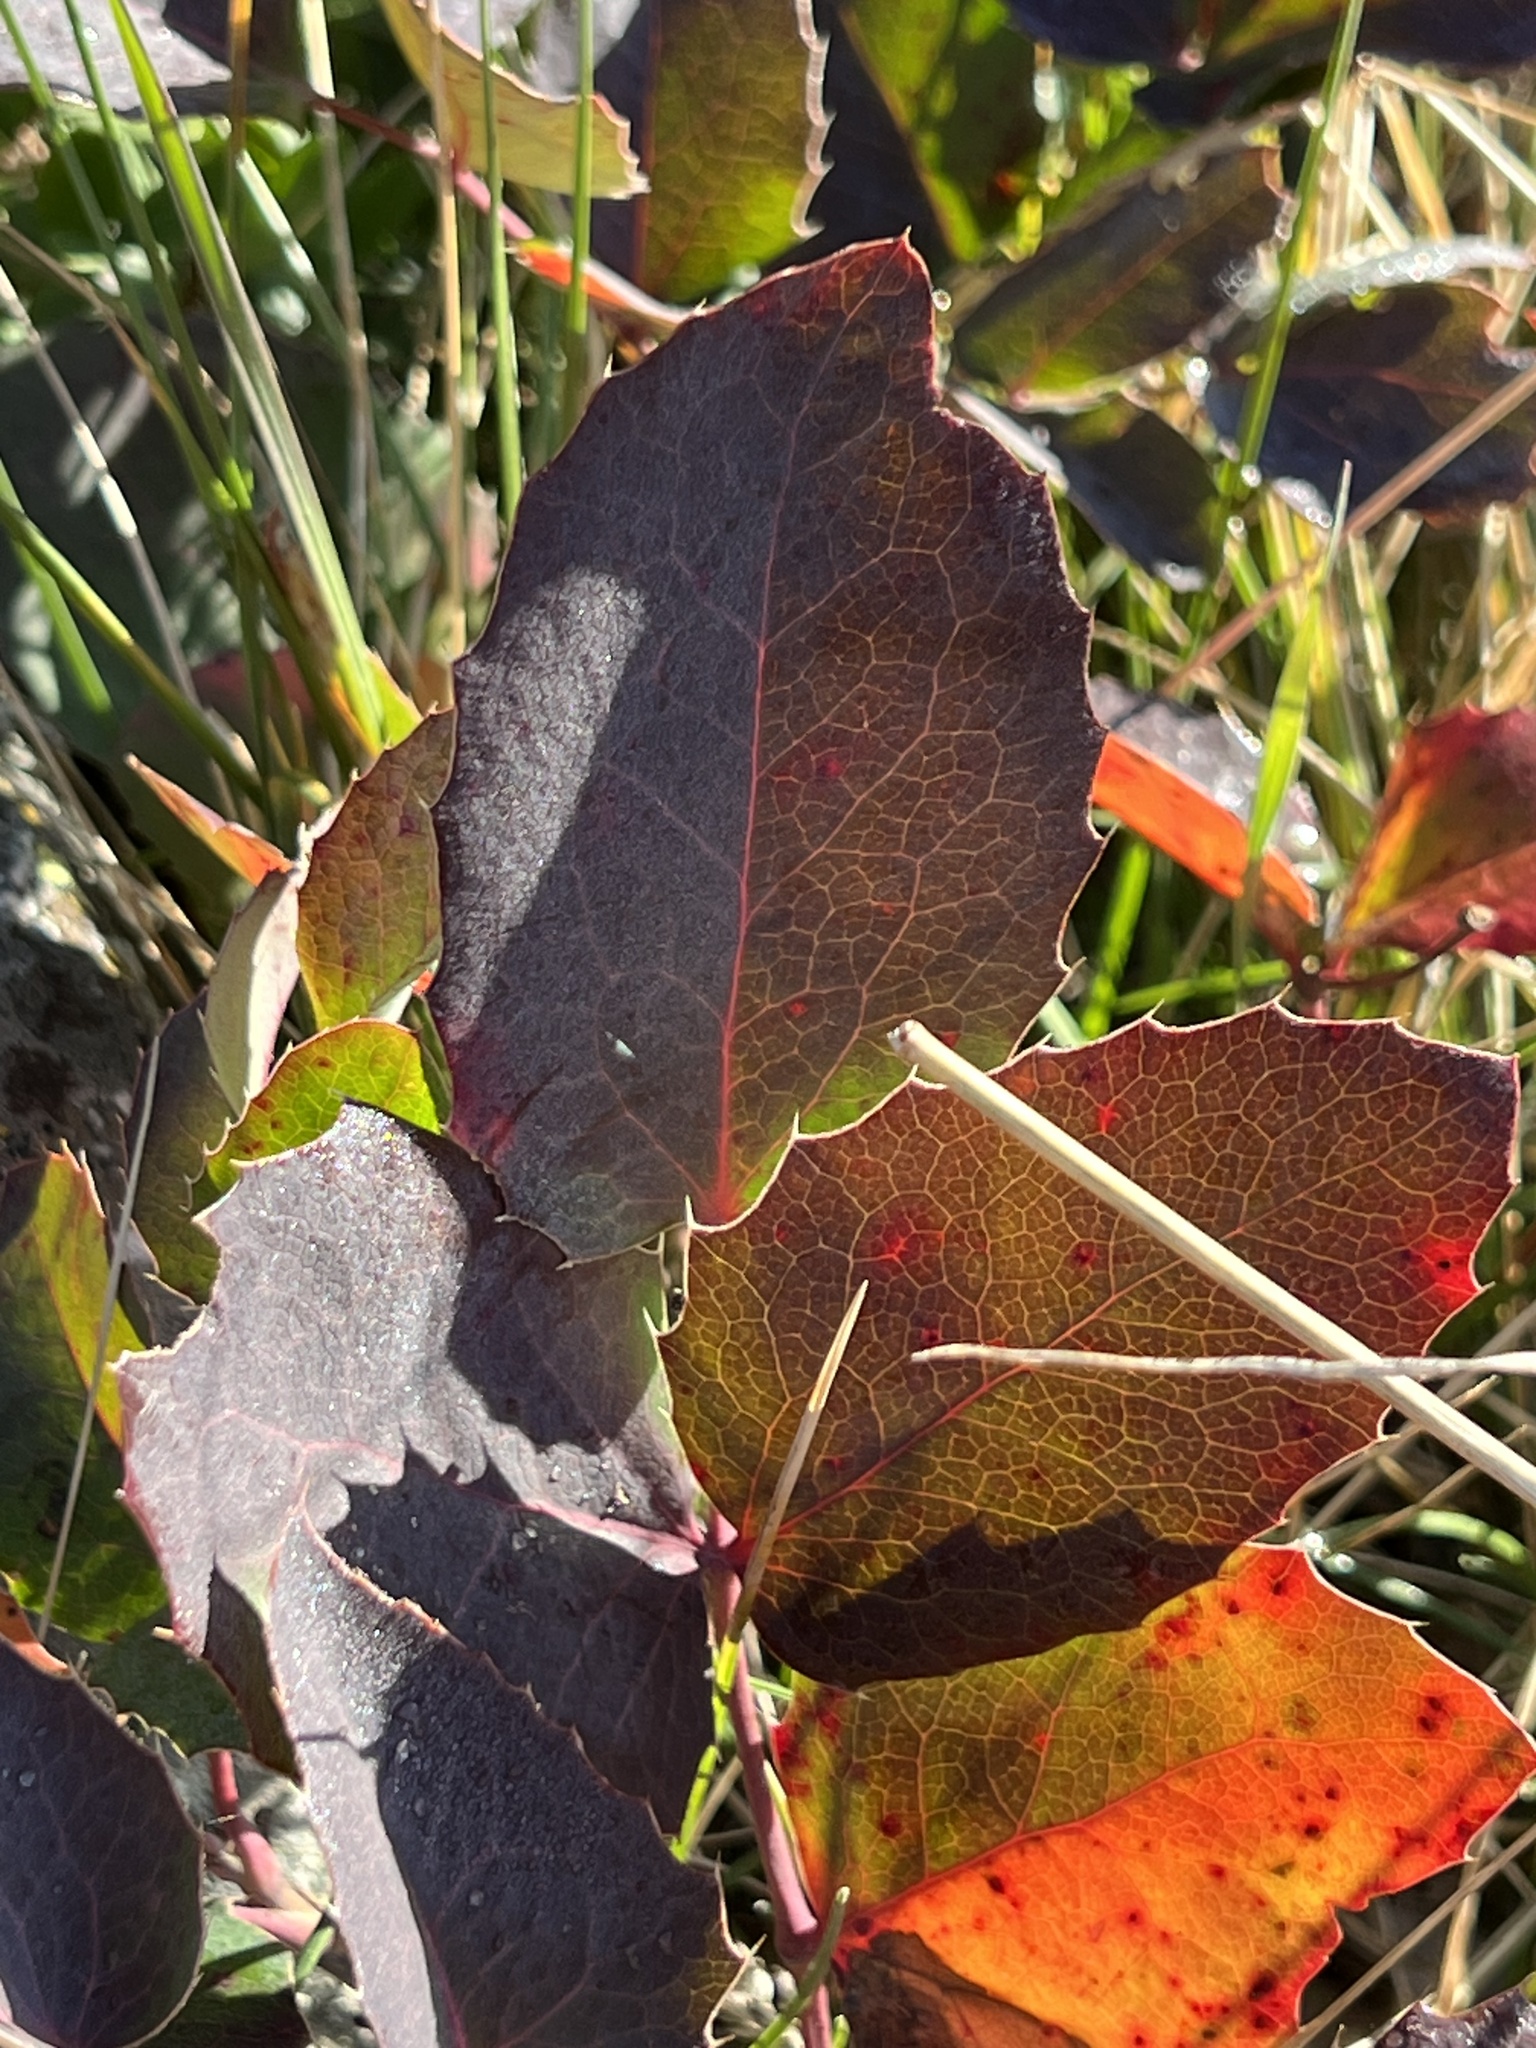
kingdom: Plantae
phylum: Tracheophyta
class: Magnoliopsida
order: Ranunculales
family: Berberidaceae
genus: Mahonia
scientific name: Mahonia repens
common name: Creeping oregon-grape
